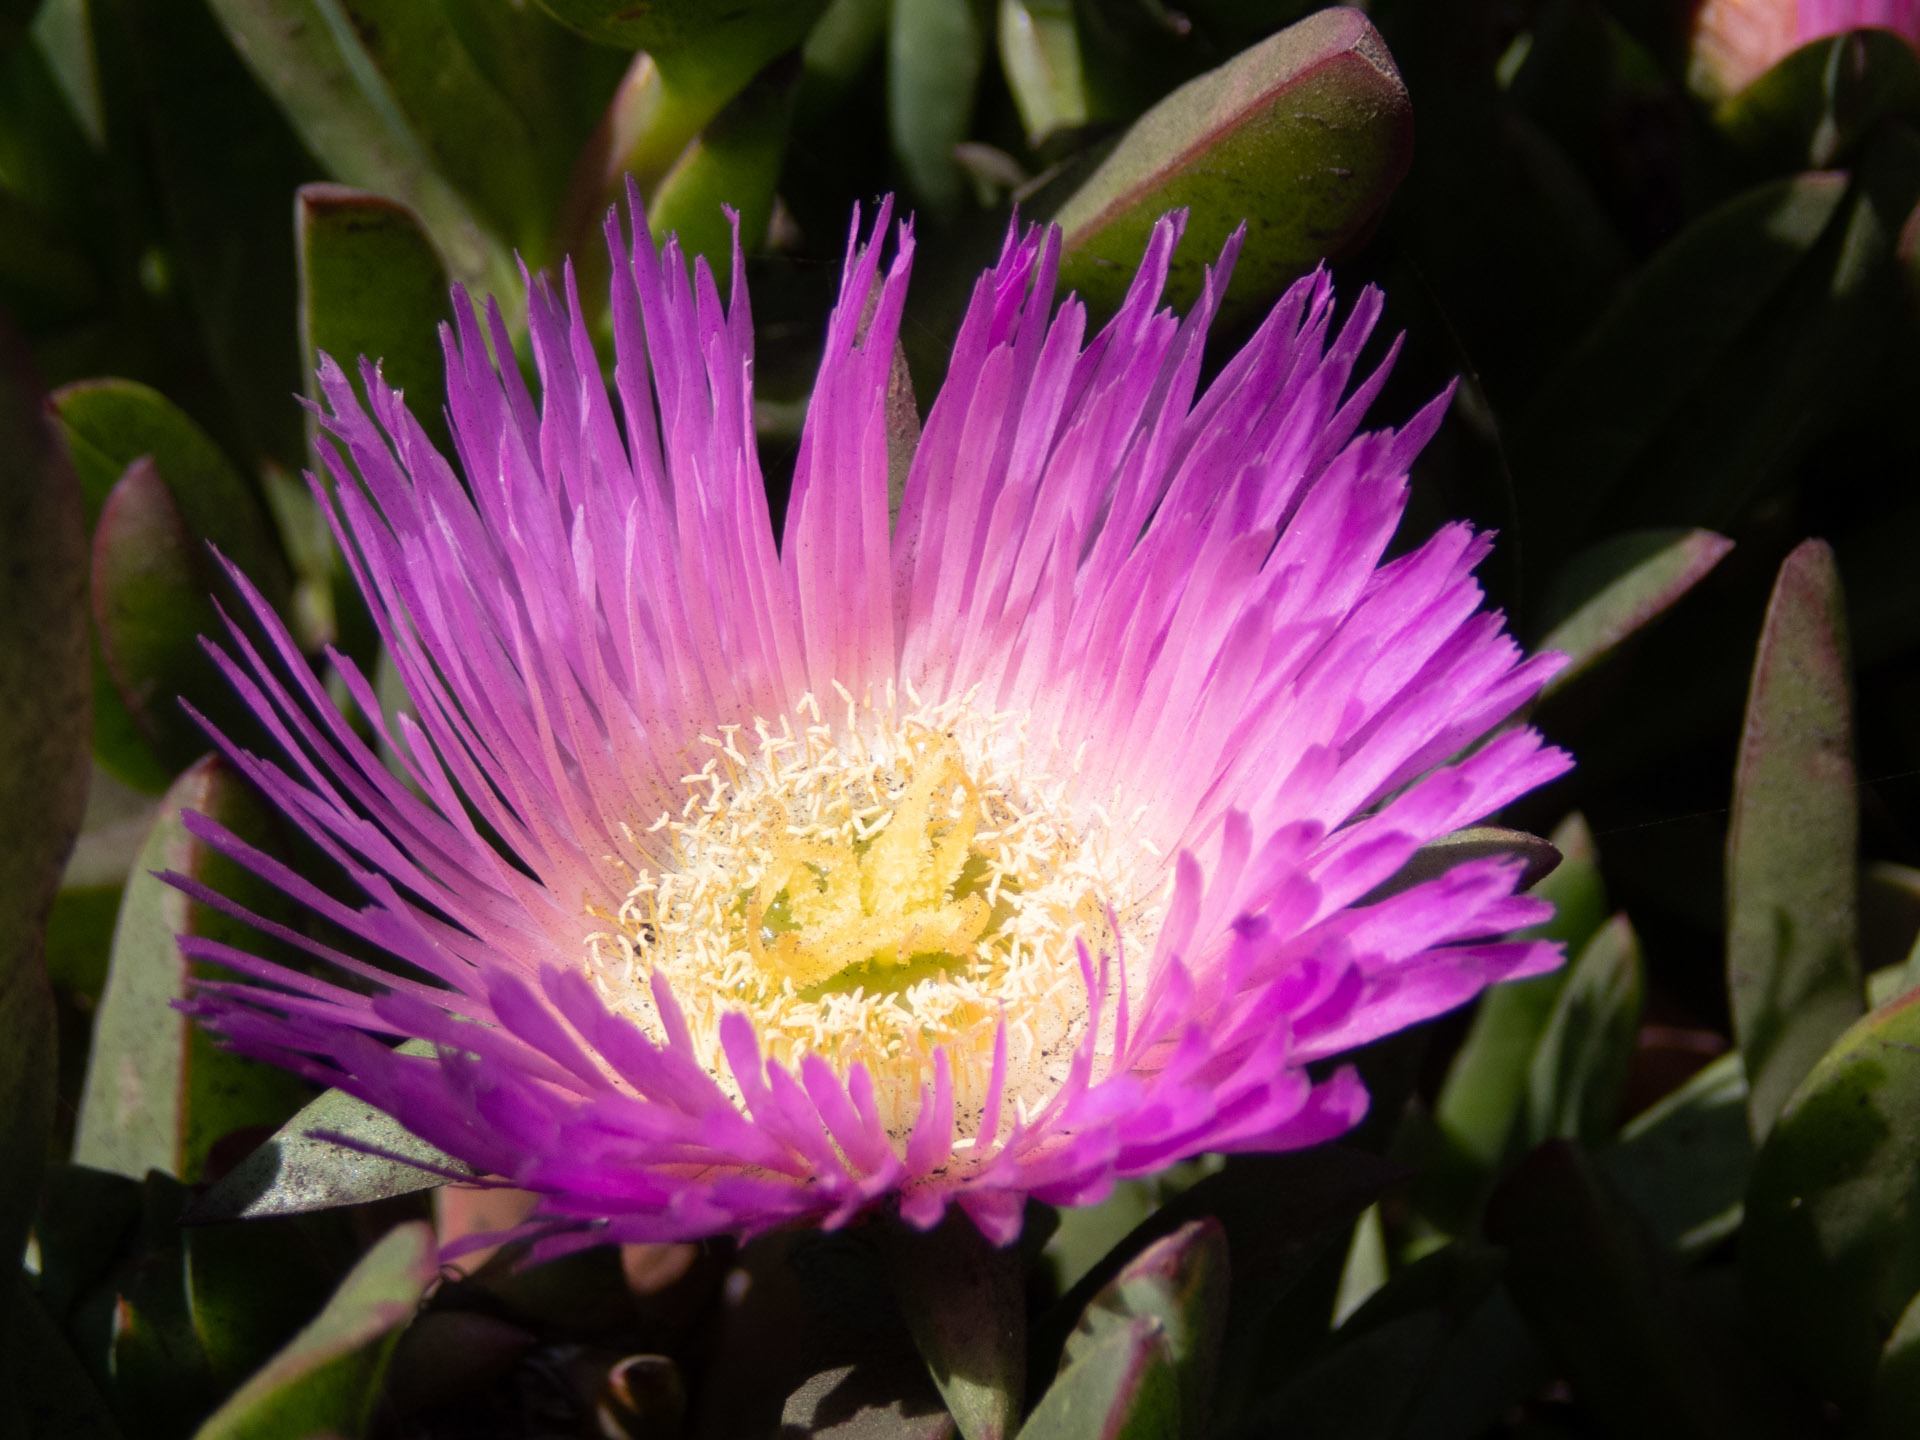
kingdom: Plantae
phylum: Tracheophyta
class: Magnoliopsida
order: Caryophyllales
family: Aizoaceae
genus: Carpobrotus
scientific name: Carpobrotus chilensis
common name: Sea fig
